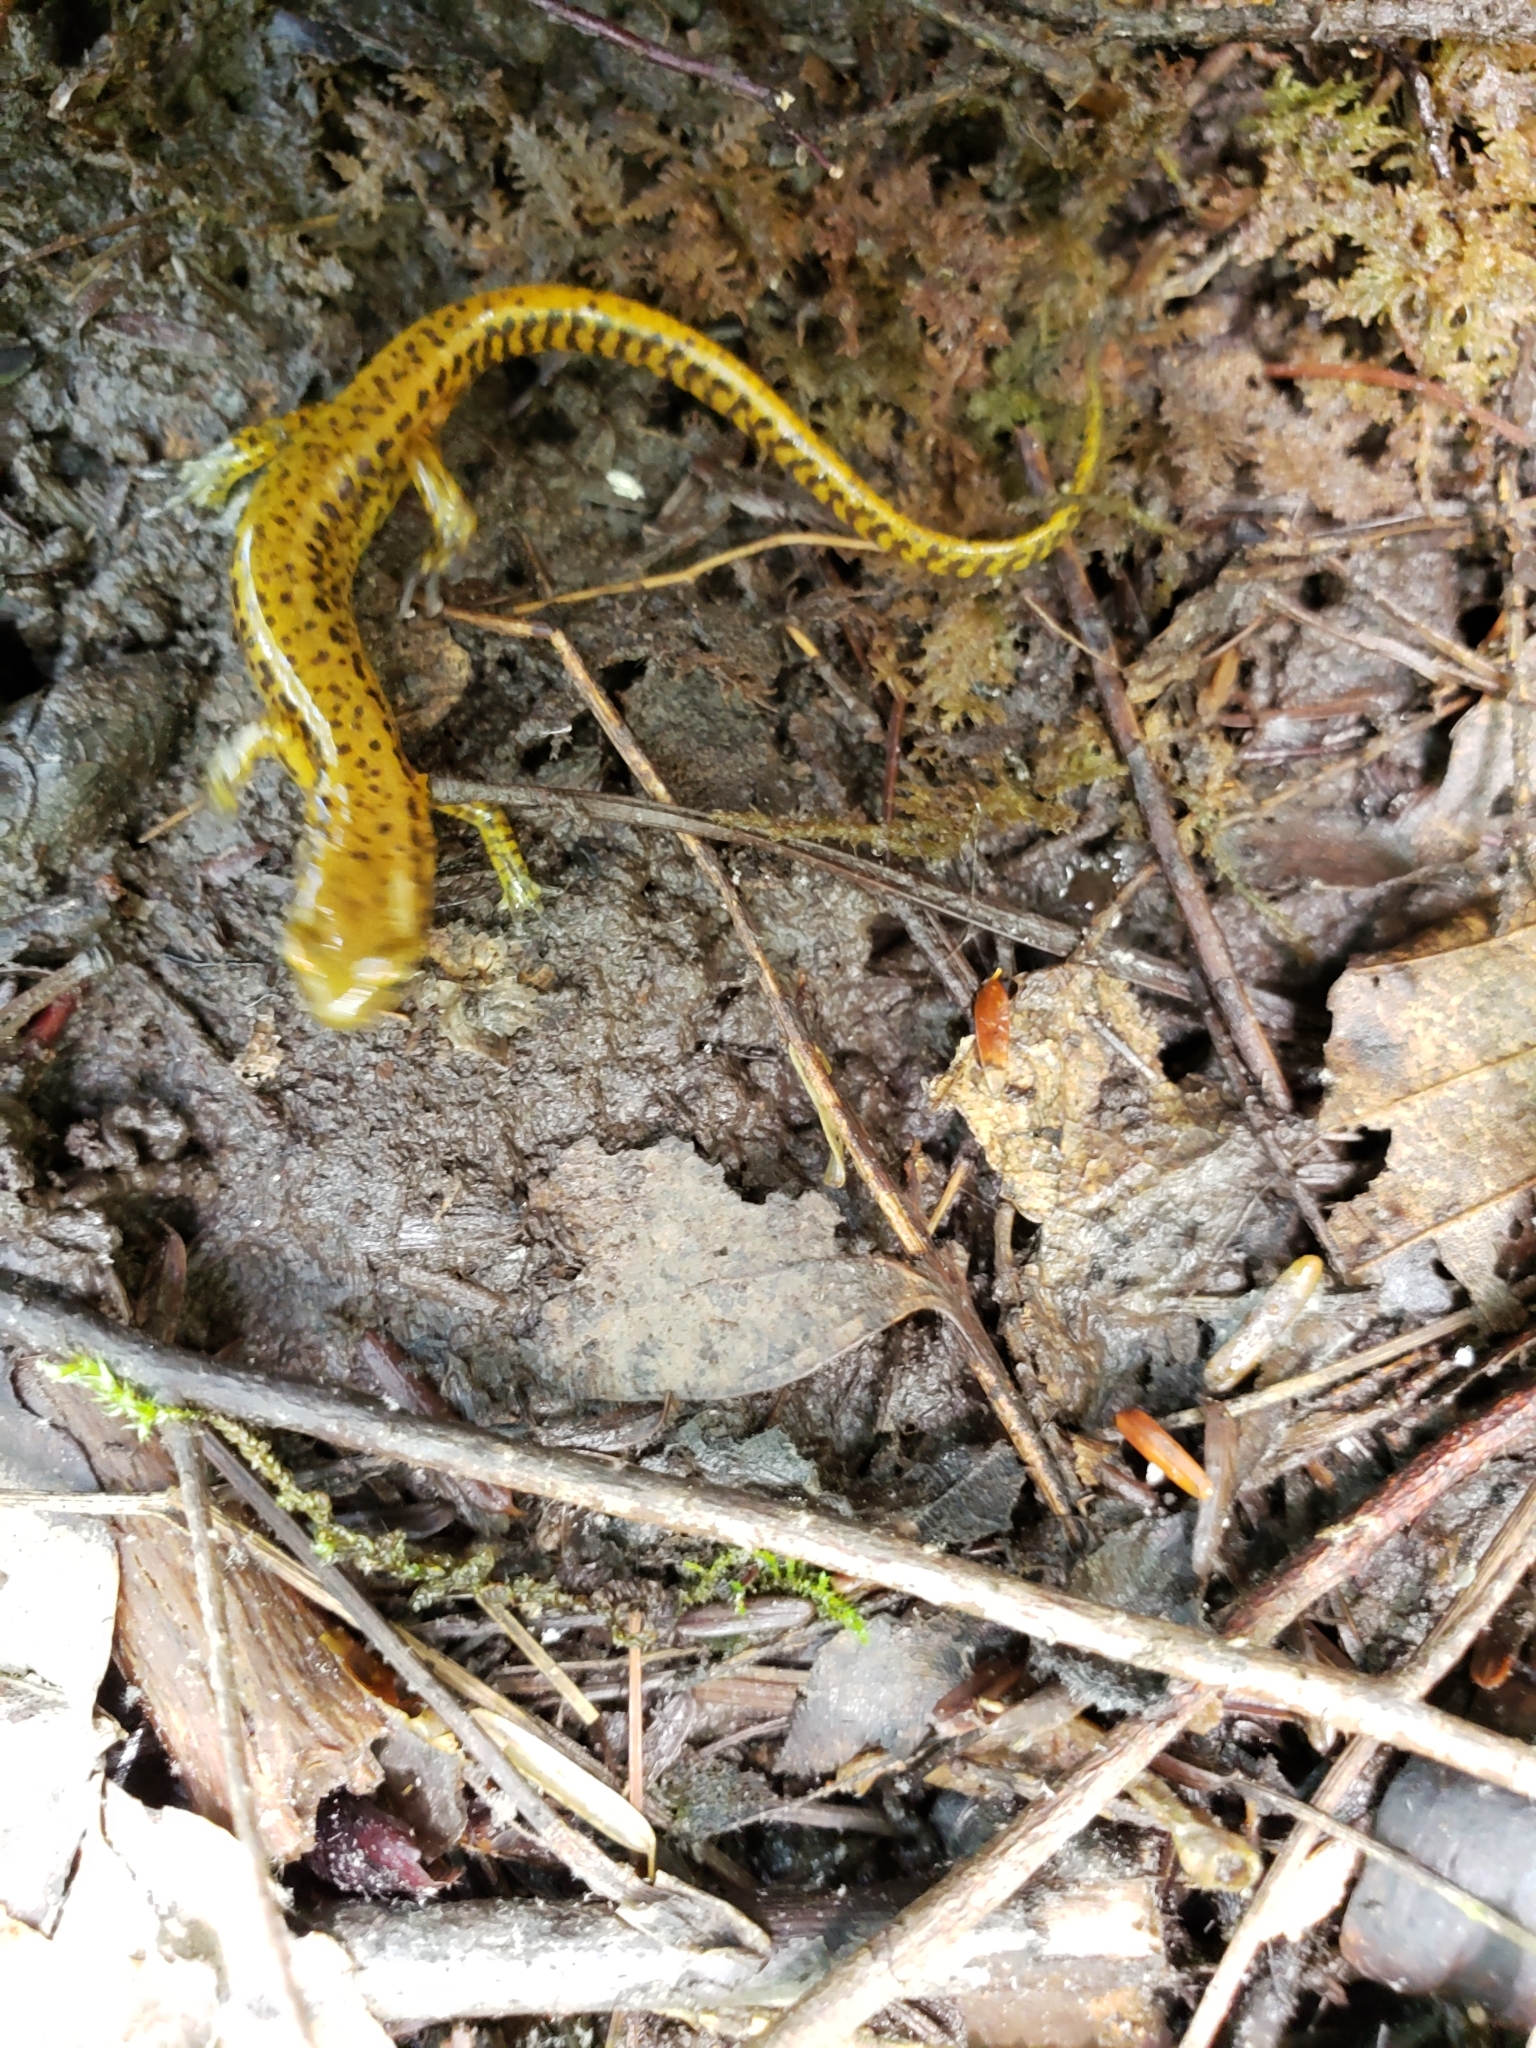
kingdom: Animalia
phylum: Chordata
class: Amphibia
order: Caudata
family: Plethodontidae
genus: Eurycea
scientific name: Eurycea longicauda
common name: Long-tailed salamander
